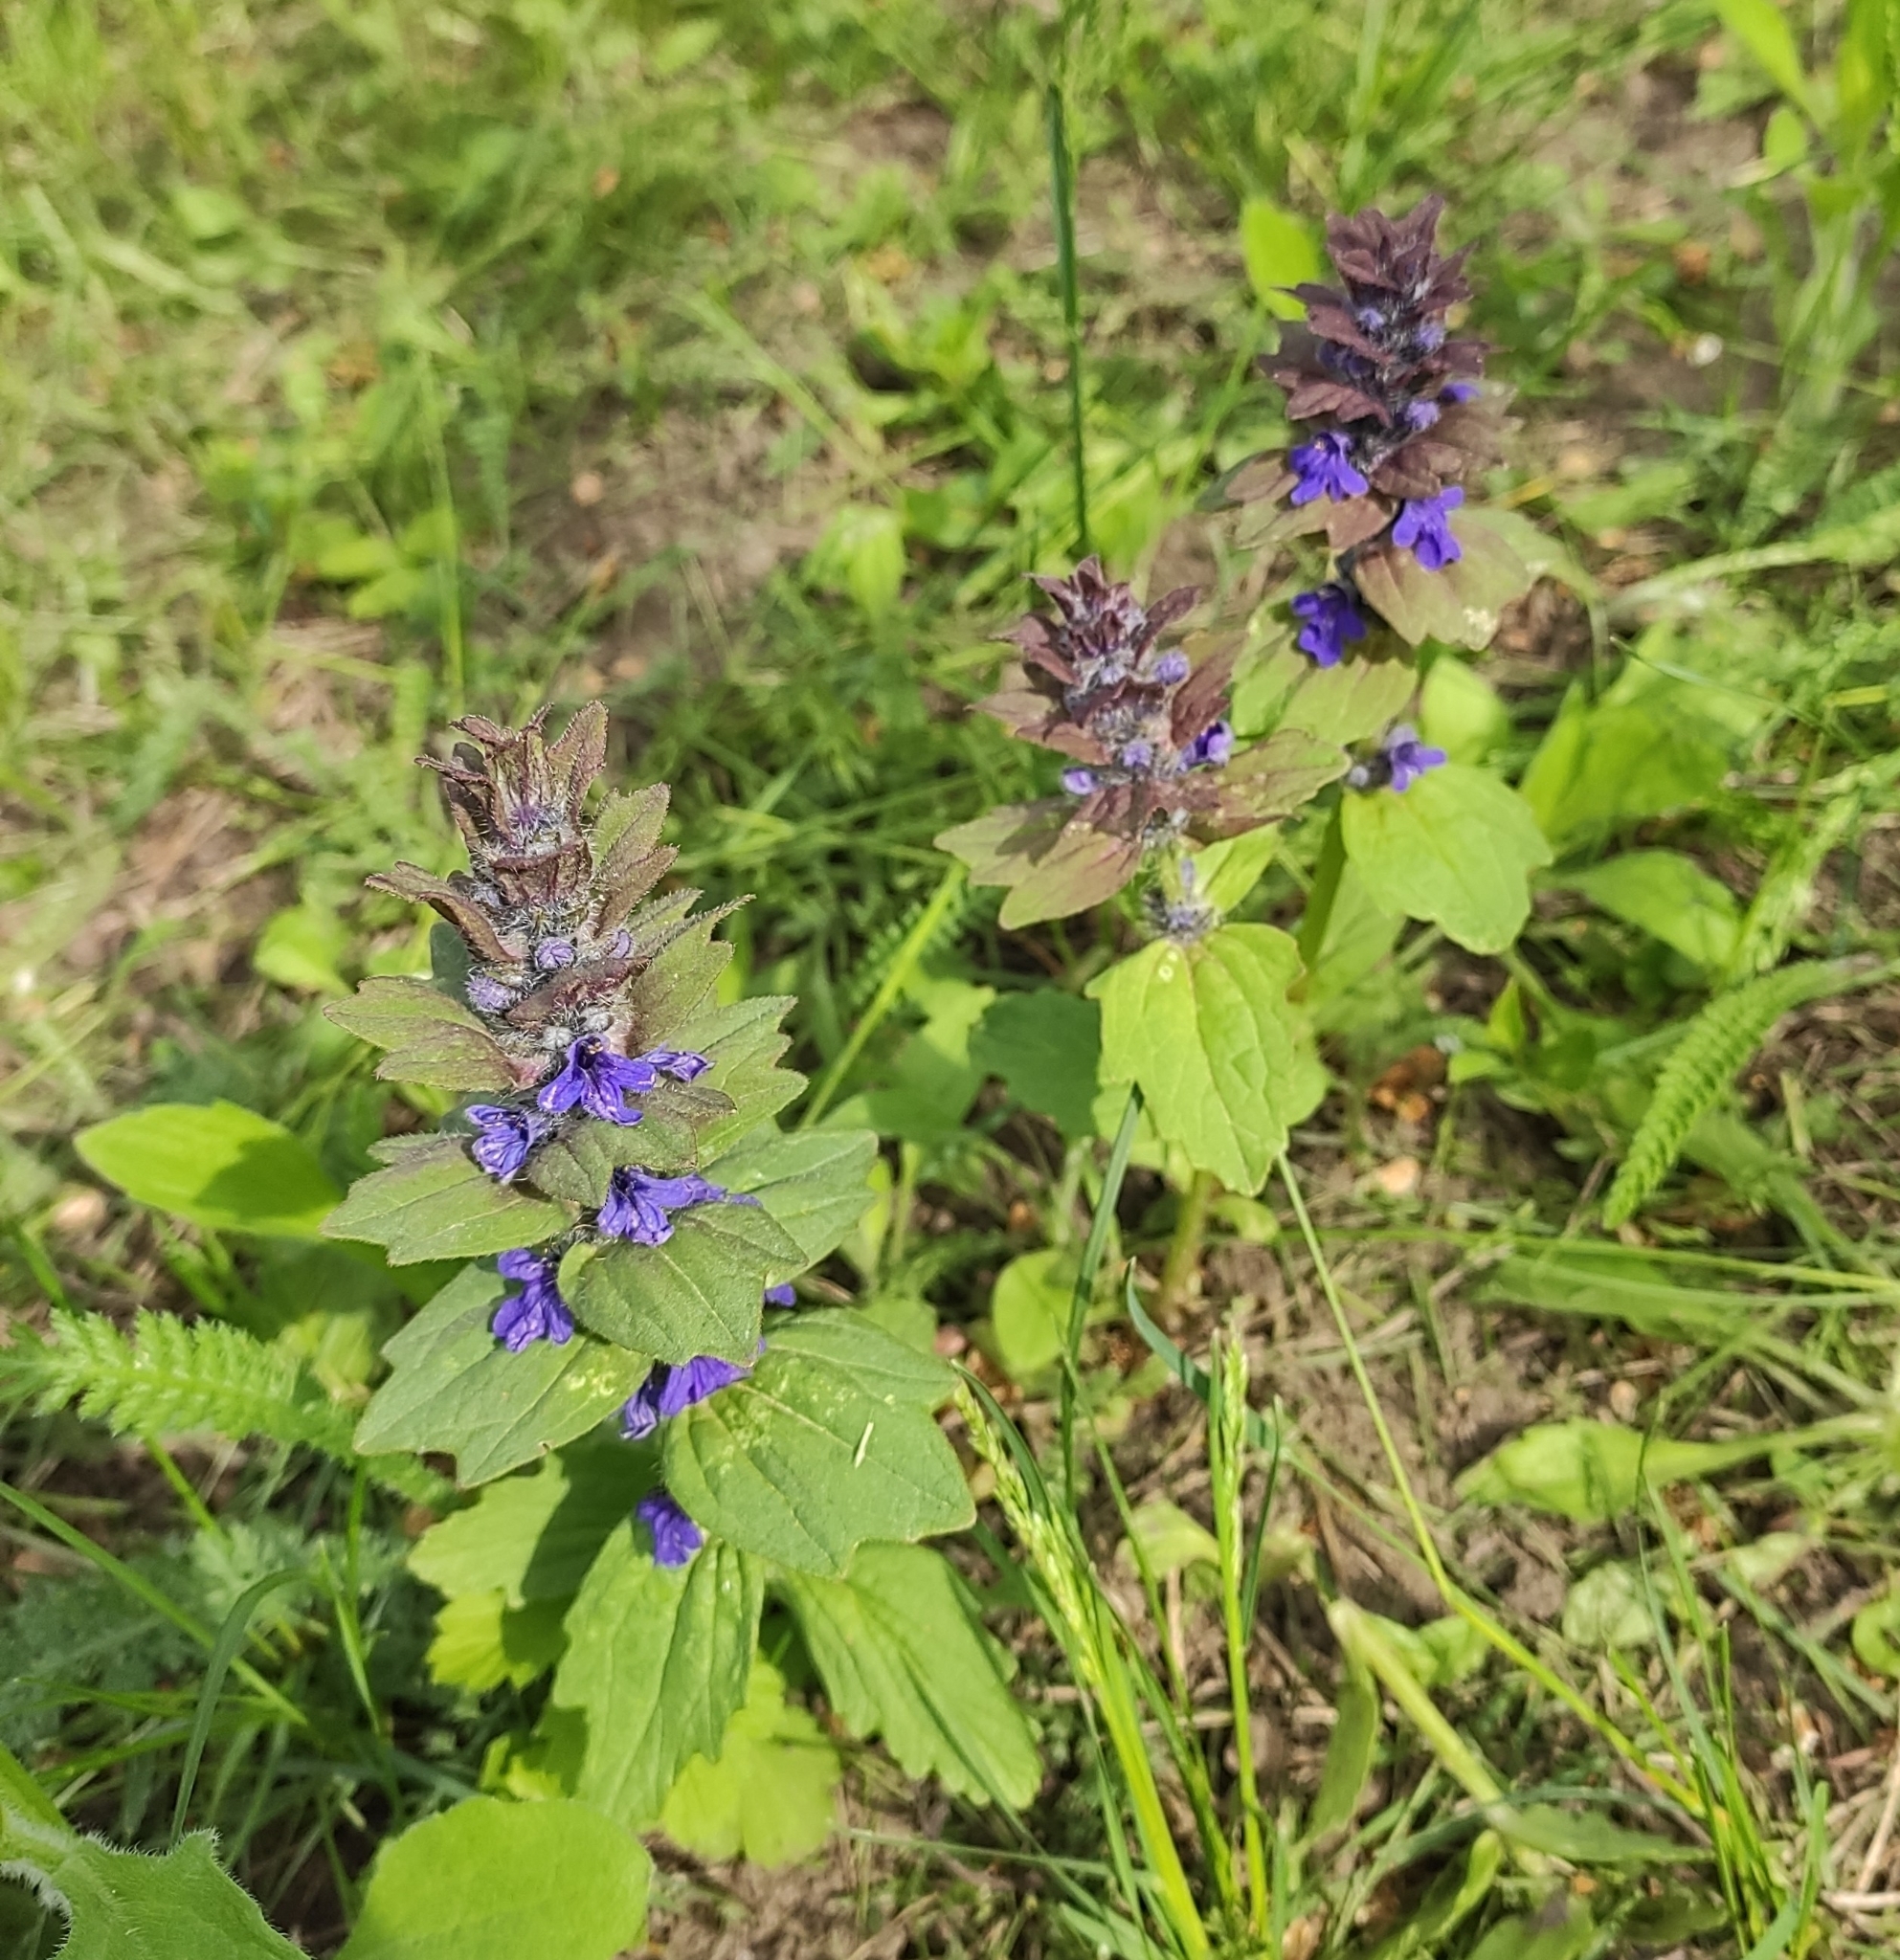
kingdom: Plantae
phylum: Tracheophyta
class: Magnoliopsida
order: Lamiales
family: Lamiaceae
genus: Ajuga
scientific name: Ajuga genevensis
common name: Blue bugle
